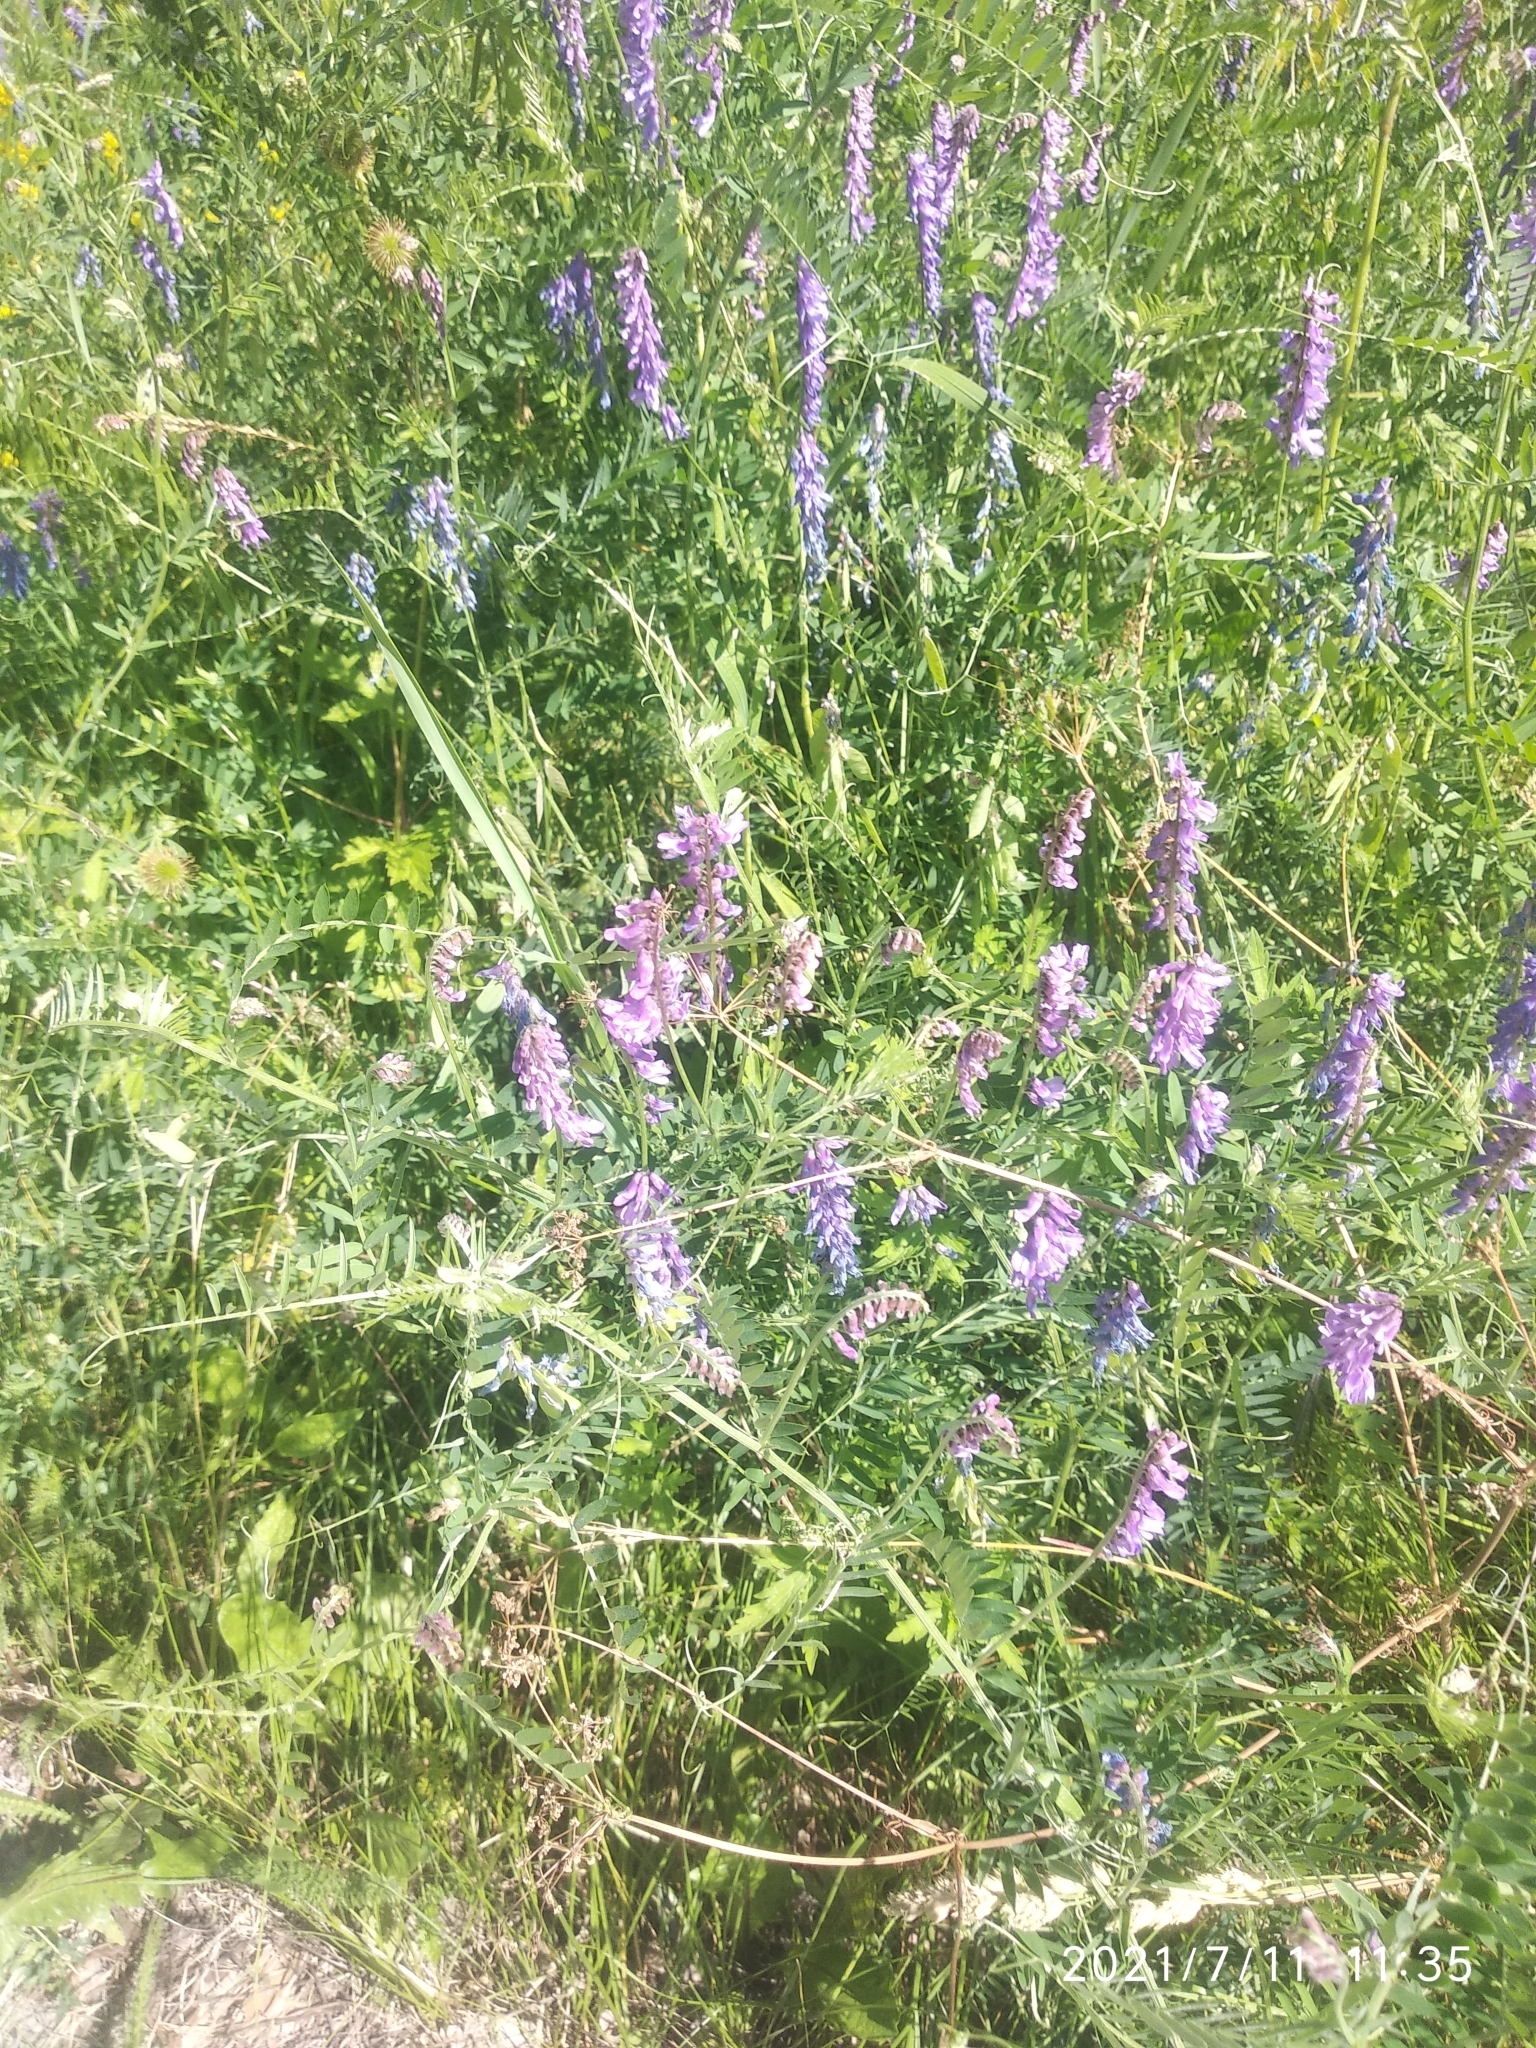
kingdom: Plantae
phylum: Tracheophyta
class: Magnoliopsida
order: Fabales
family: Fabaceae
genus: Vicia
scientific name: Vicia cracca
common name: Bird vetch
